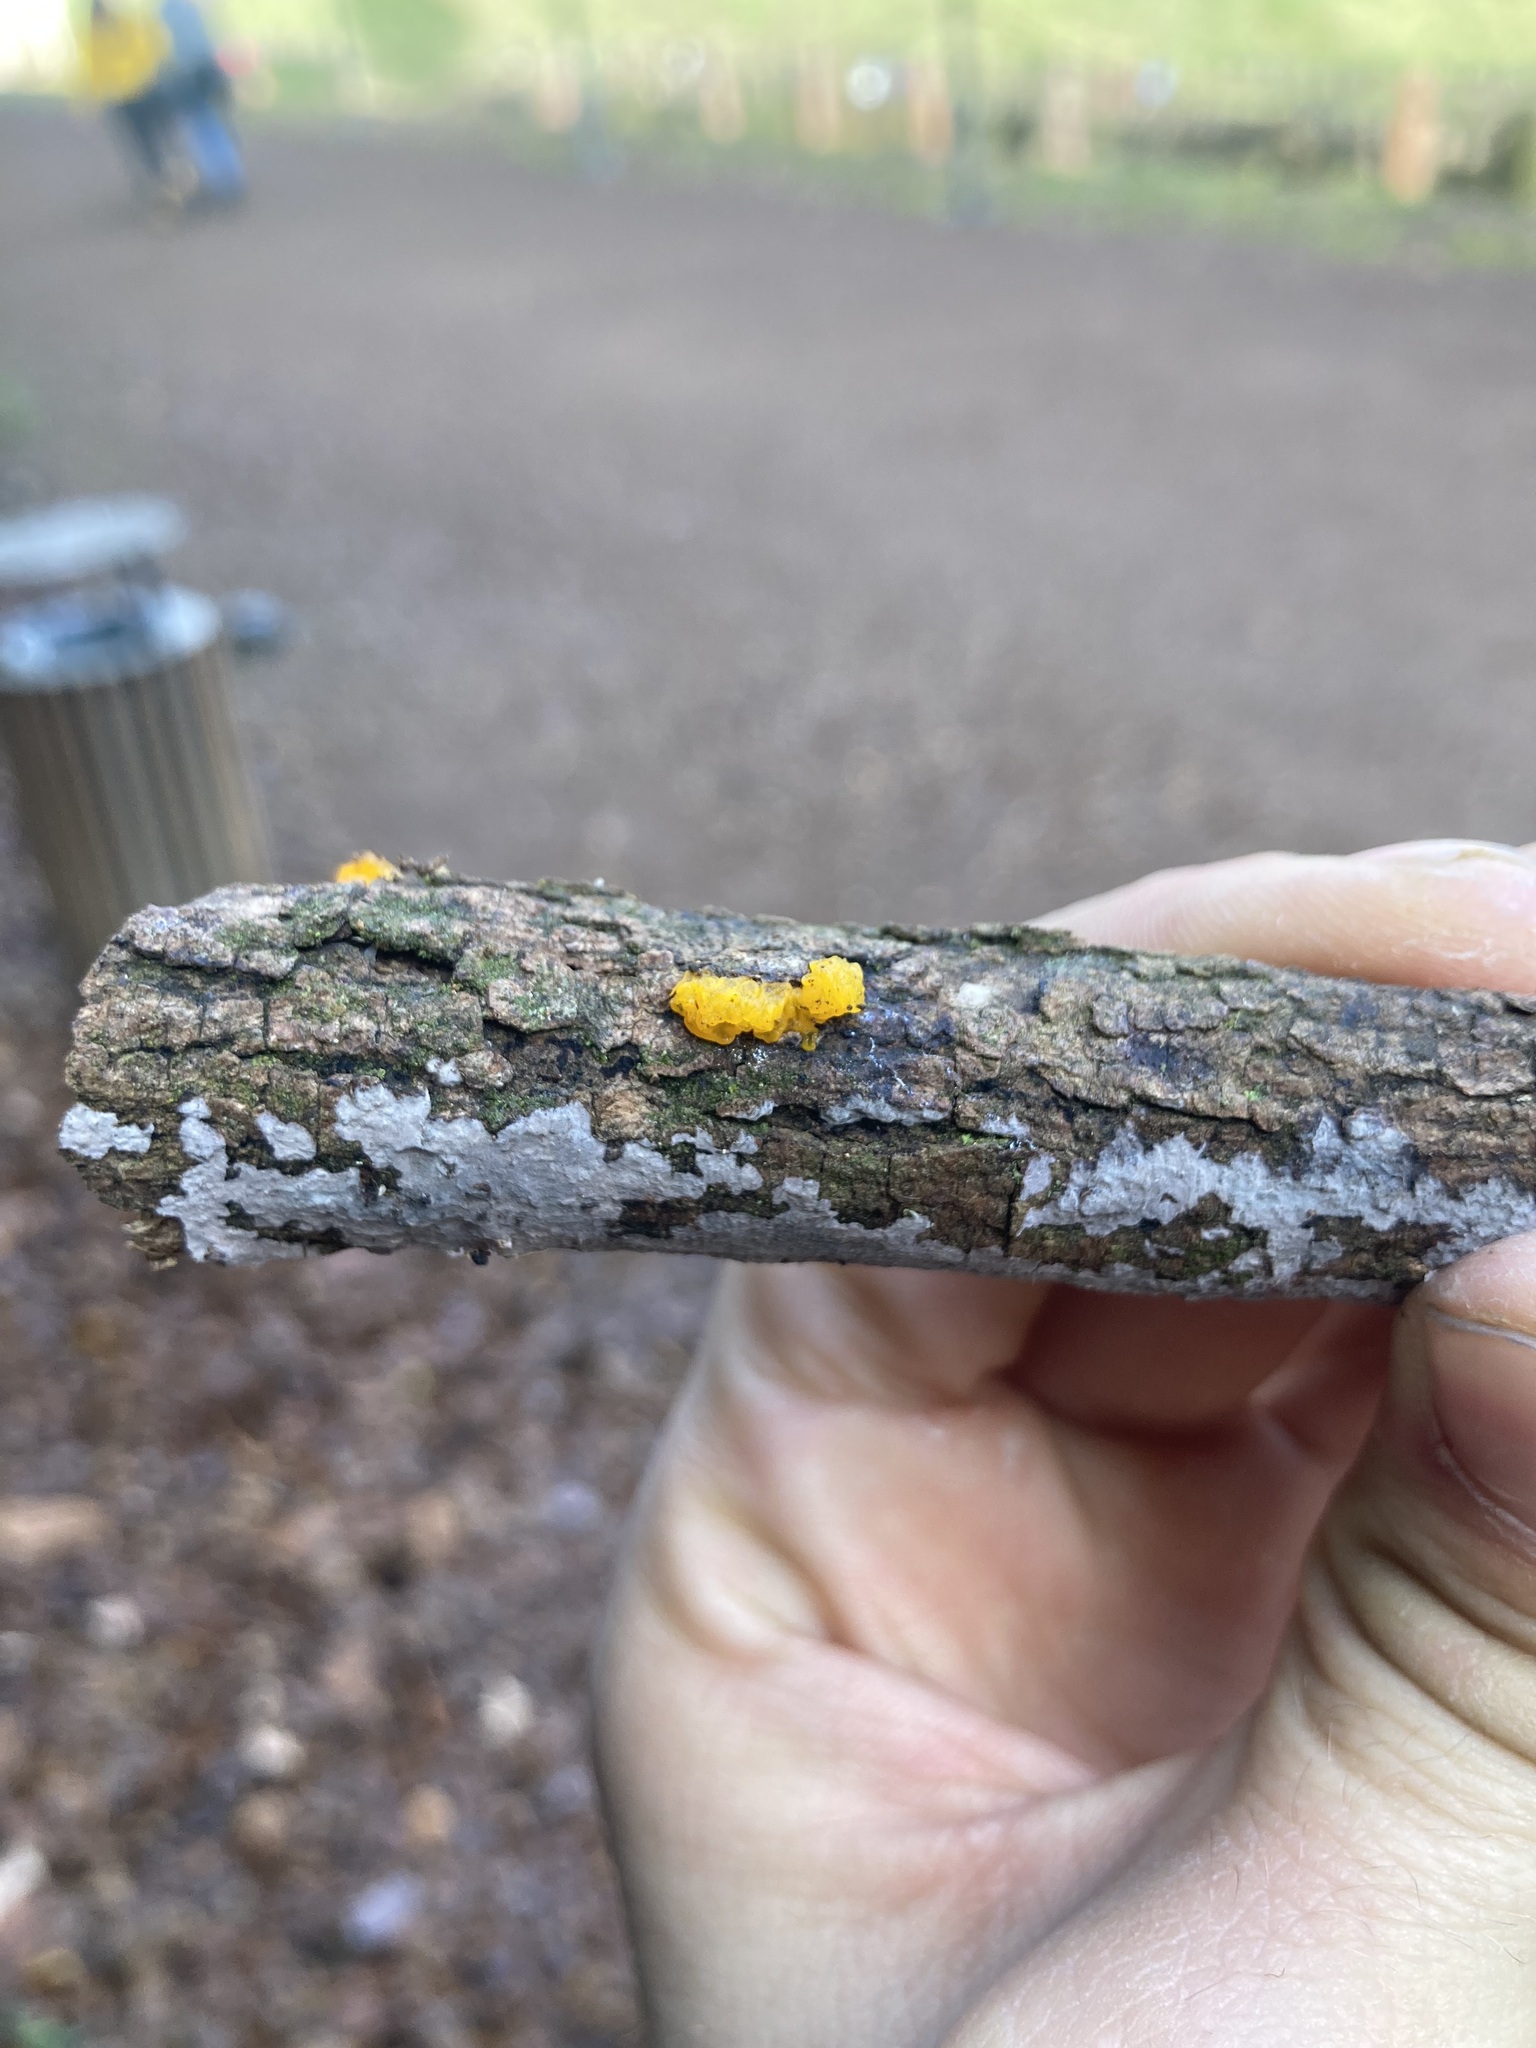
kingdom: Fungi
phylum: Basidiomycota
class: Tremellomycetes
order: Tremellales
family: Tremellaceae
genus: Tremella
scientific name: Tremella mesenterica
